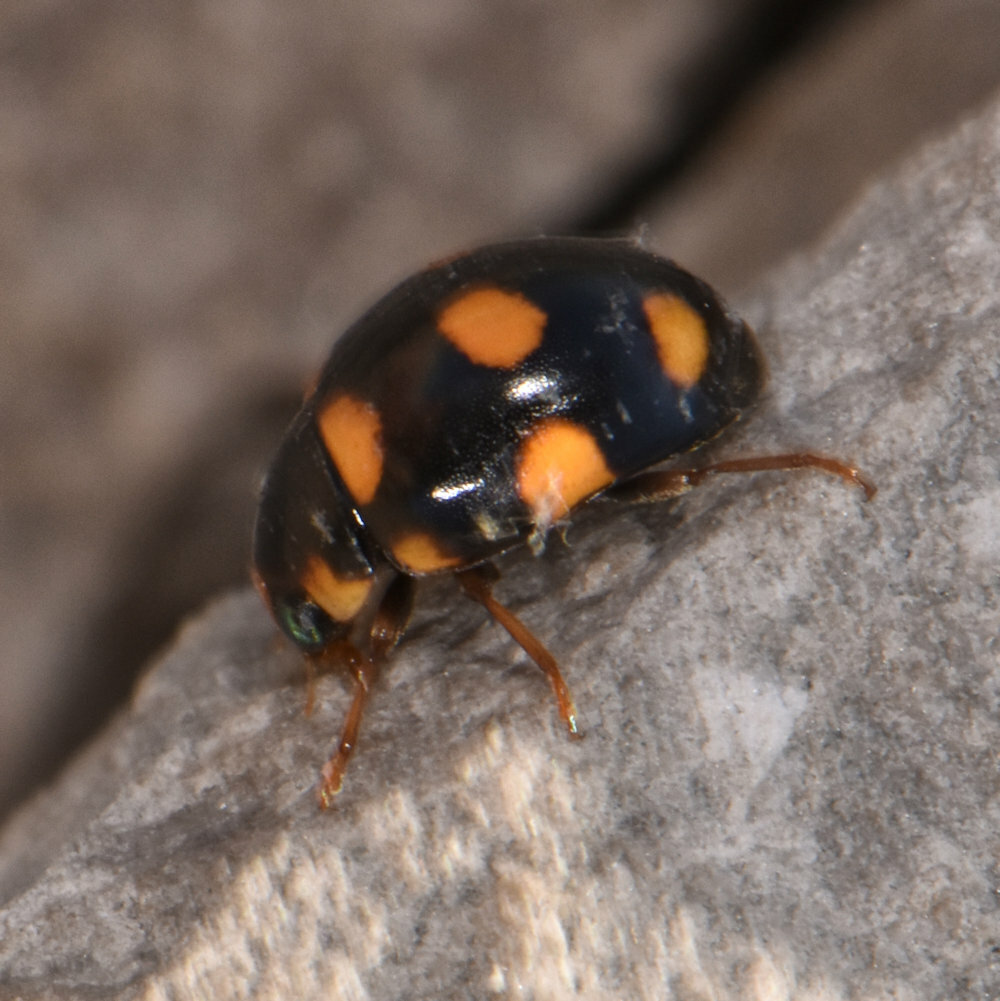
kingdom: Animalia
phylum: Arthropoda
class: Insecta
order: Coleoptera
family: Coccinellidae
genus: Brachiacantha
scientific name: Brachiacantha ursina
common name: Ursine spurleg lady beetle
